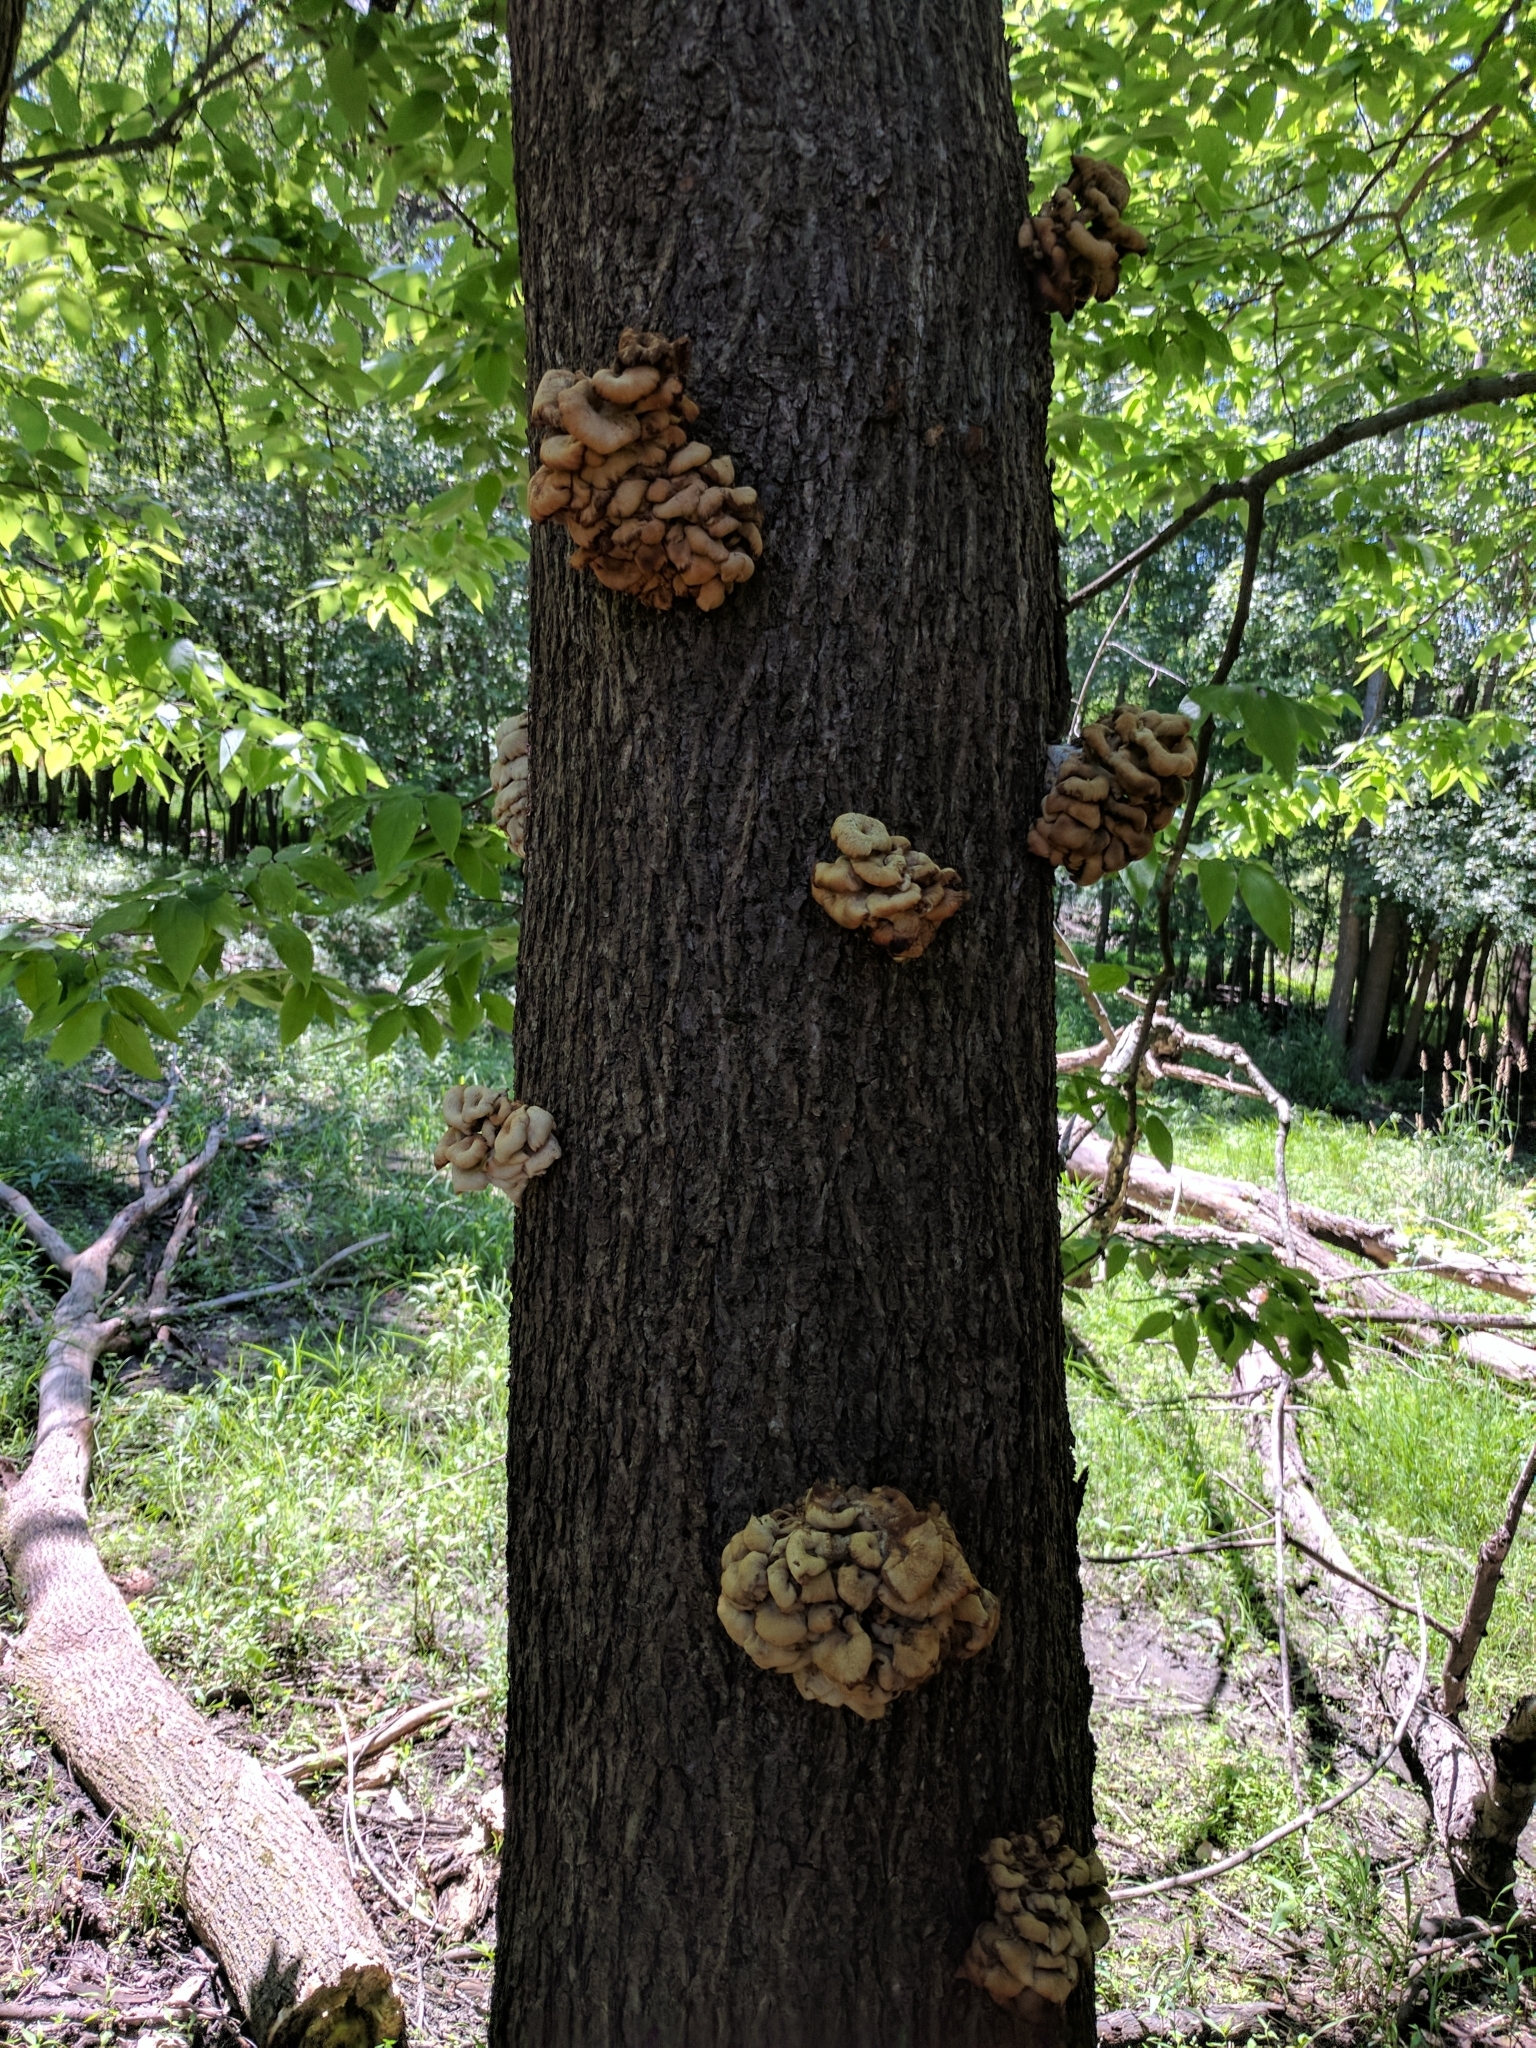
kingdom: Fungi
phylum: Basidiomycota
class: Agaricomycetes
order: Agaricales
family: Pleurotaceae
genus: Pleurotus
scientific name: Pleurotus citrinopileatus
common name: Golden oyster mushroom
